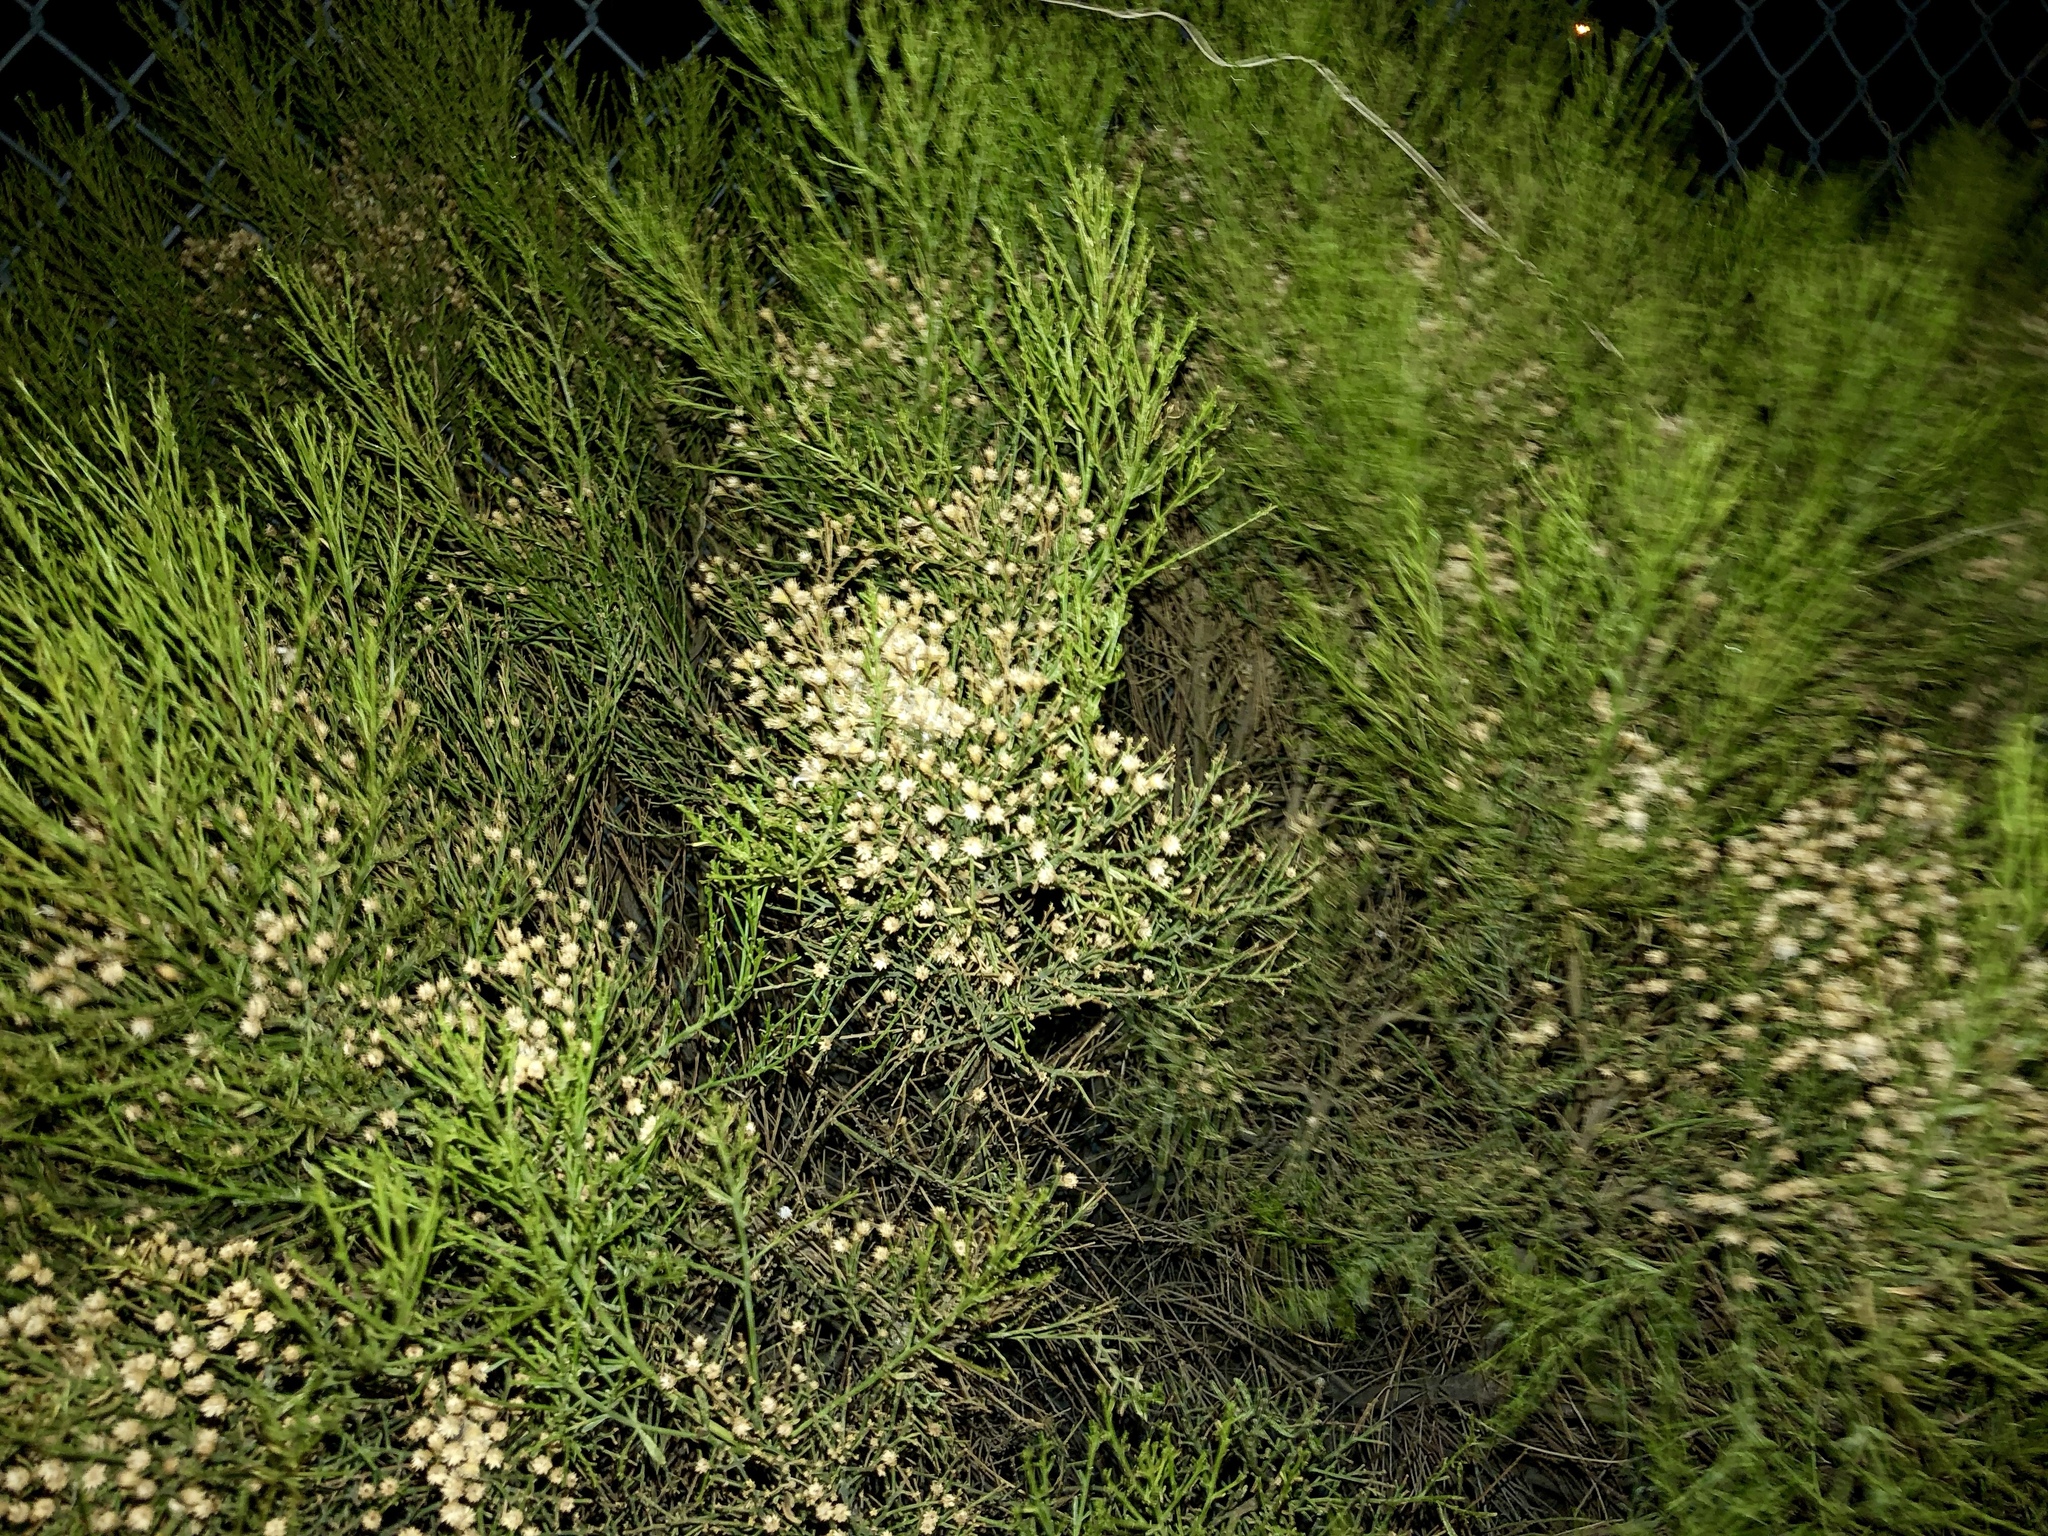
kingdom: Plantae
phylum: Tracheophyta
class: Magnoliopsida
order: Asterales
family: Asteraceae
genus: Baccharis
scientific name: Baccharis sarothroides
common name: Desert-broom
